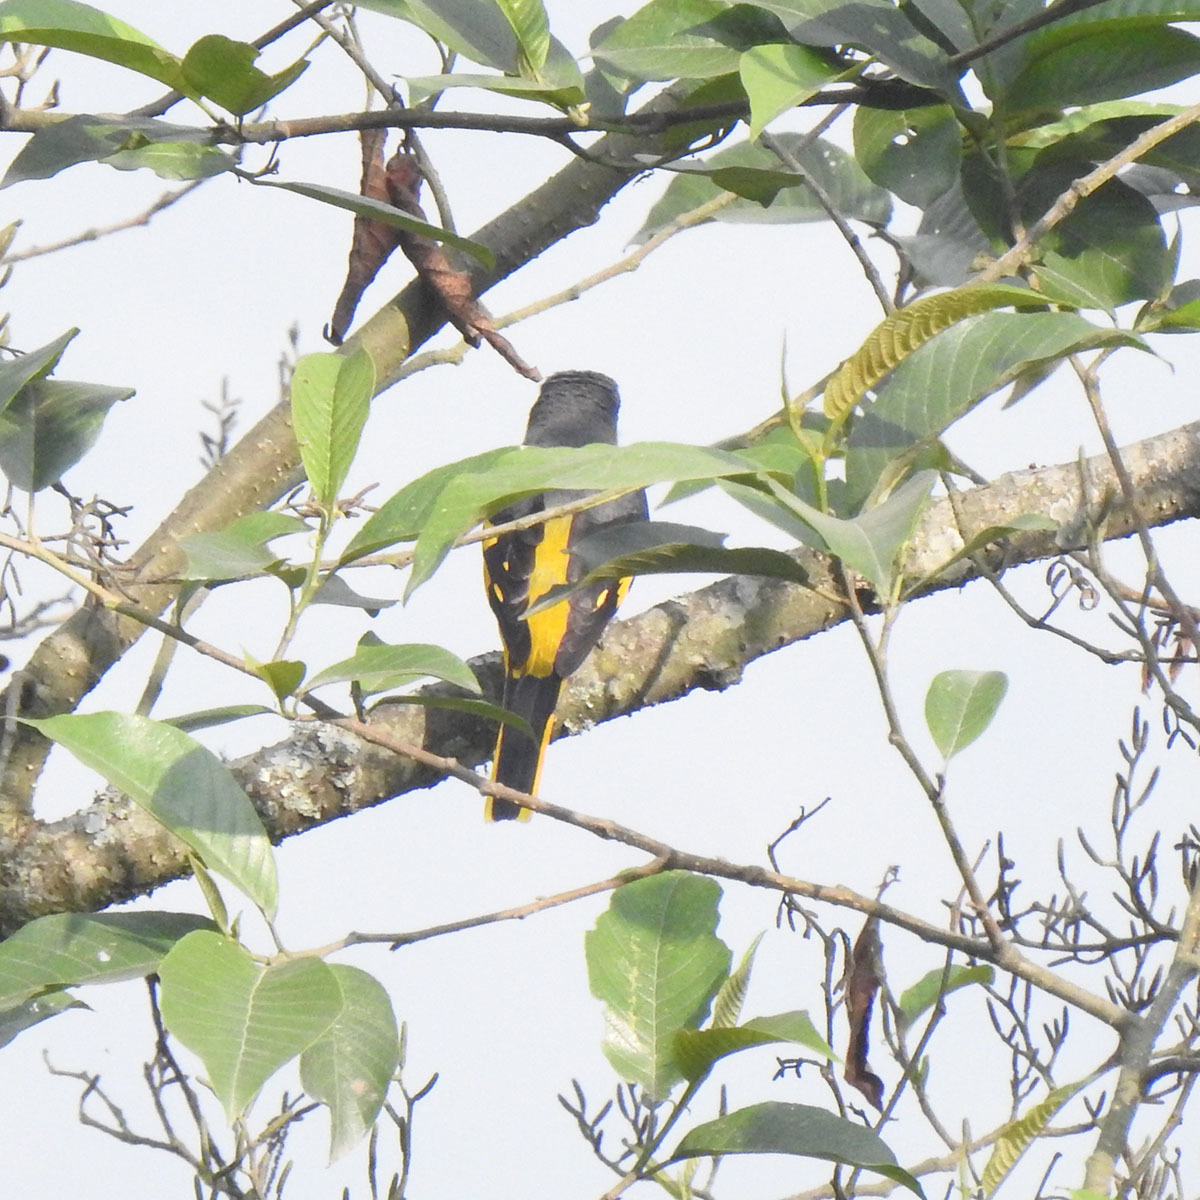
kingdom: Animalia
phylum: Chordata
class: Aves
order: Passeriformes
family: Campephagidae
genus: Pericrocotus
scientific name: Pericrocotus speciosus
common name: Scarlet minivet
